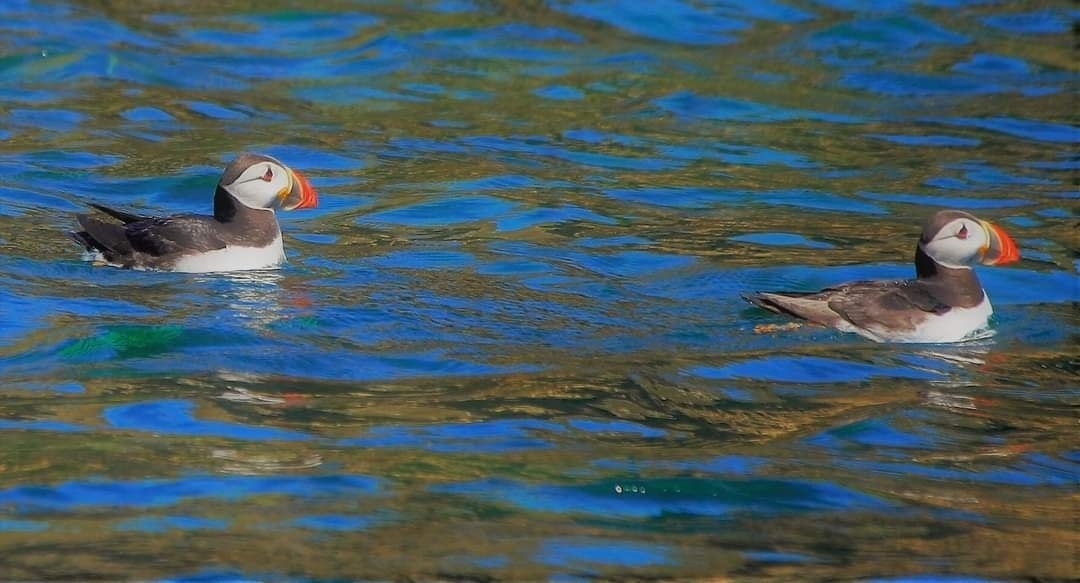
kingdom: Animalia
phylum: Chordata
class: Aves
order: Charadriiformes
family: Alcidae
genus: Fratercula
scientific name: Fratercula arctica
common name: Atlantic puffin
